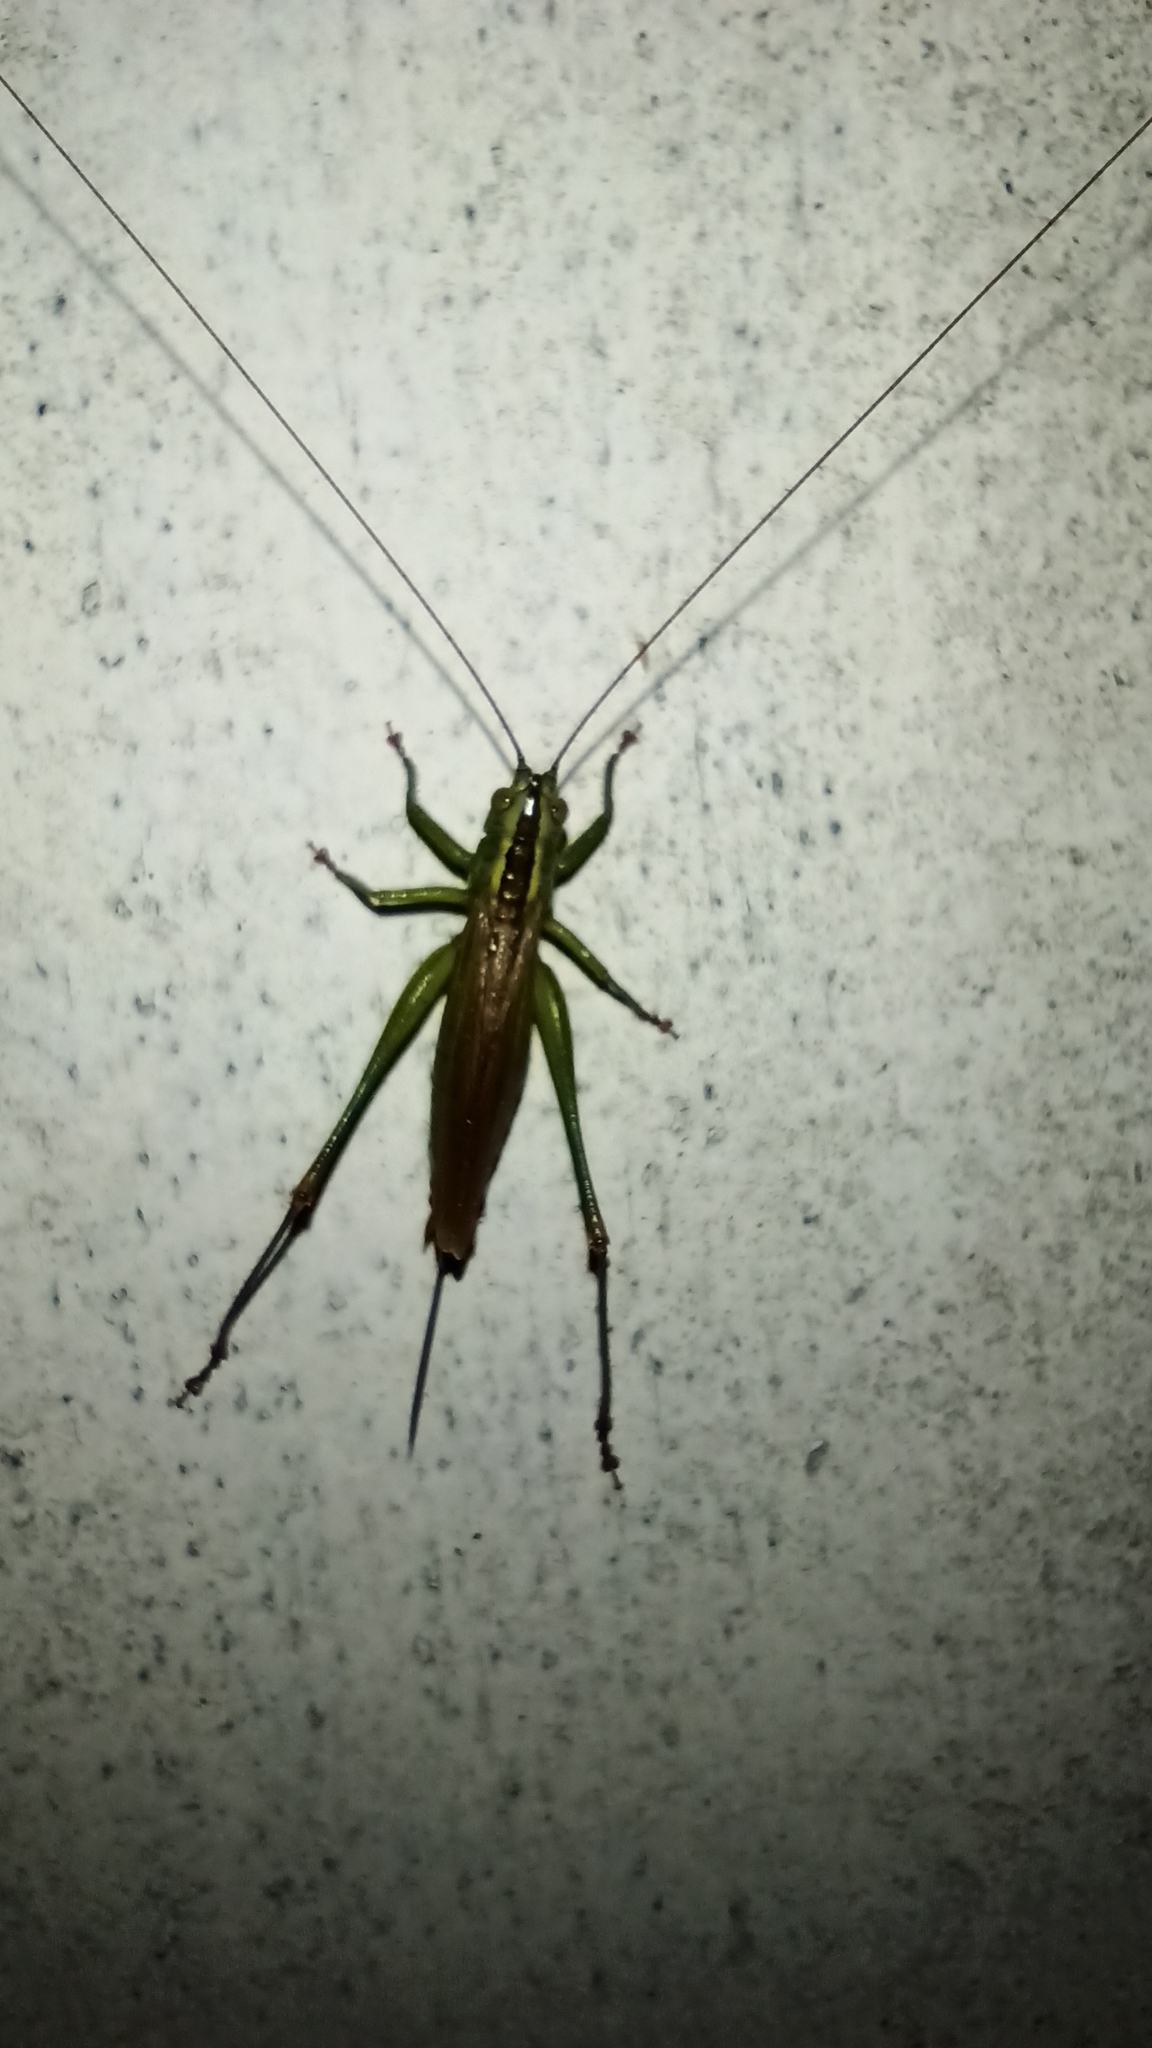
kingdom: Animalia
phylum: Arthropoda
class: Insecta
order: Orthoptera
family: Tettigoniidae
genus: Conocephalus
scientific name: Conocephalus fuscus
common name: Long-winged conehead
